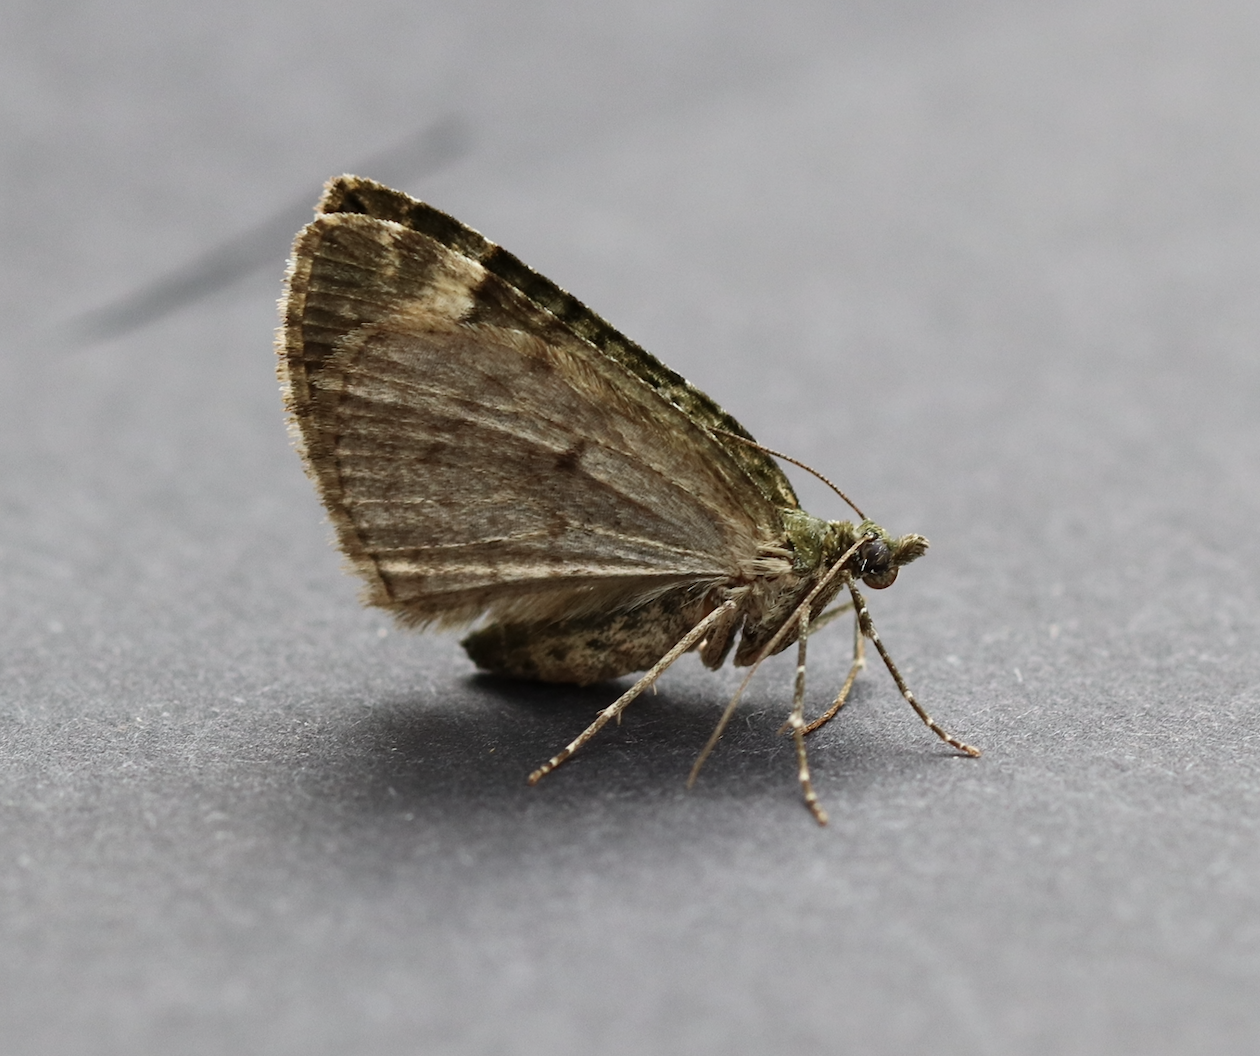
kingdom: Animalia
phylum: Arthropoda
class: Insecta
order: Lepidoptera
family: Geometridae
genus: Chloroclysta
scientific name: Chloroclysta siterata
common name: Red-green carpet
